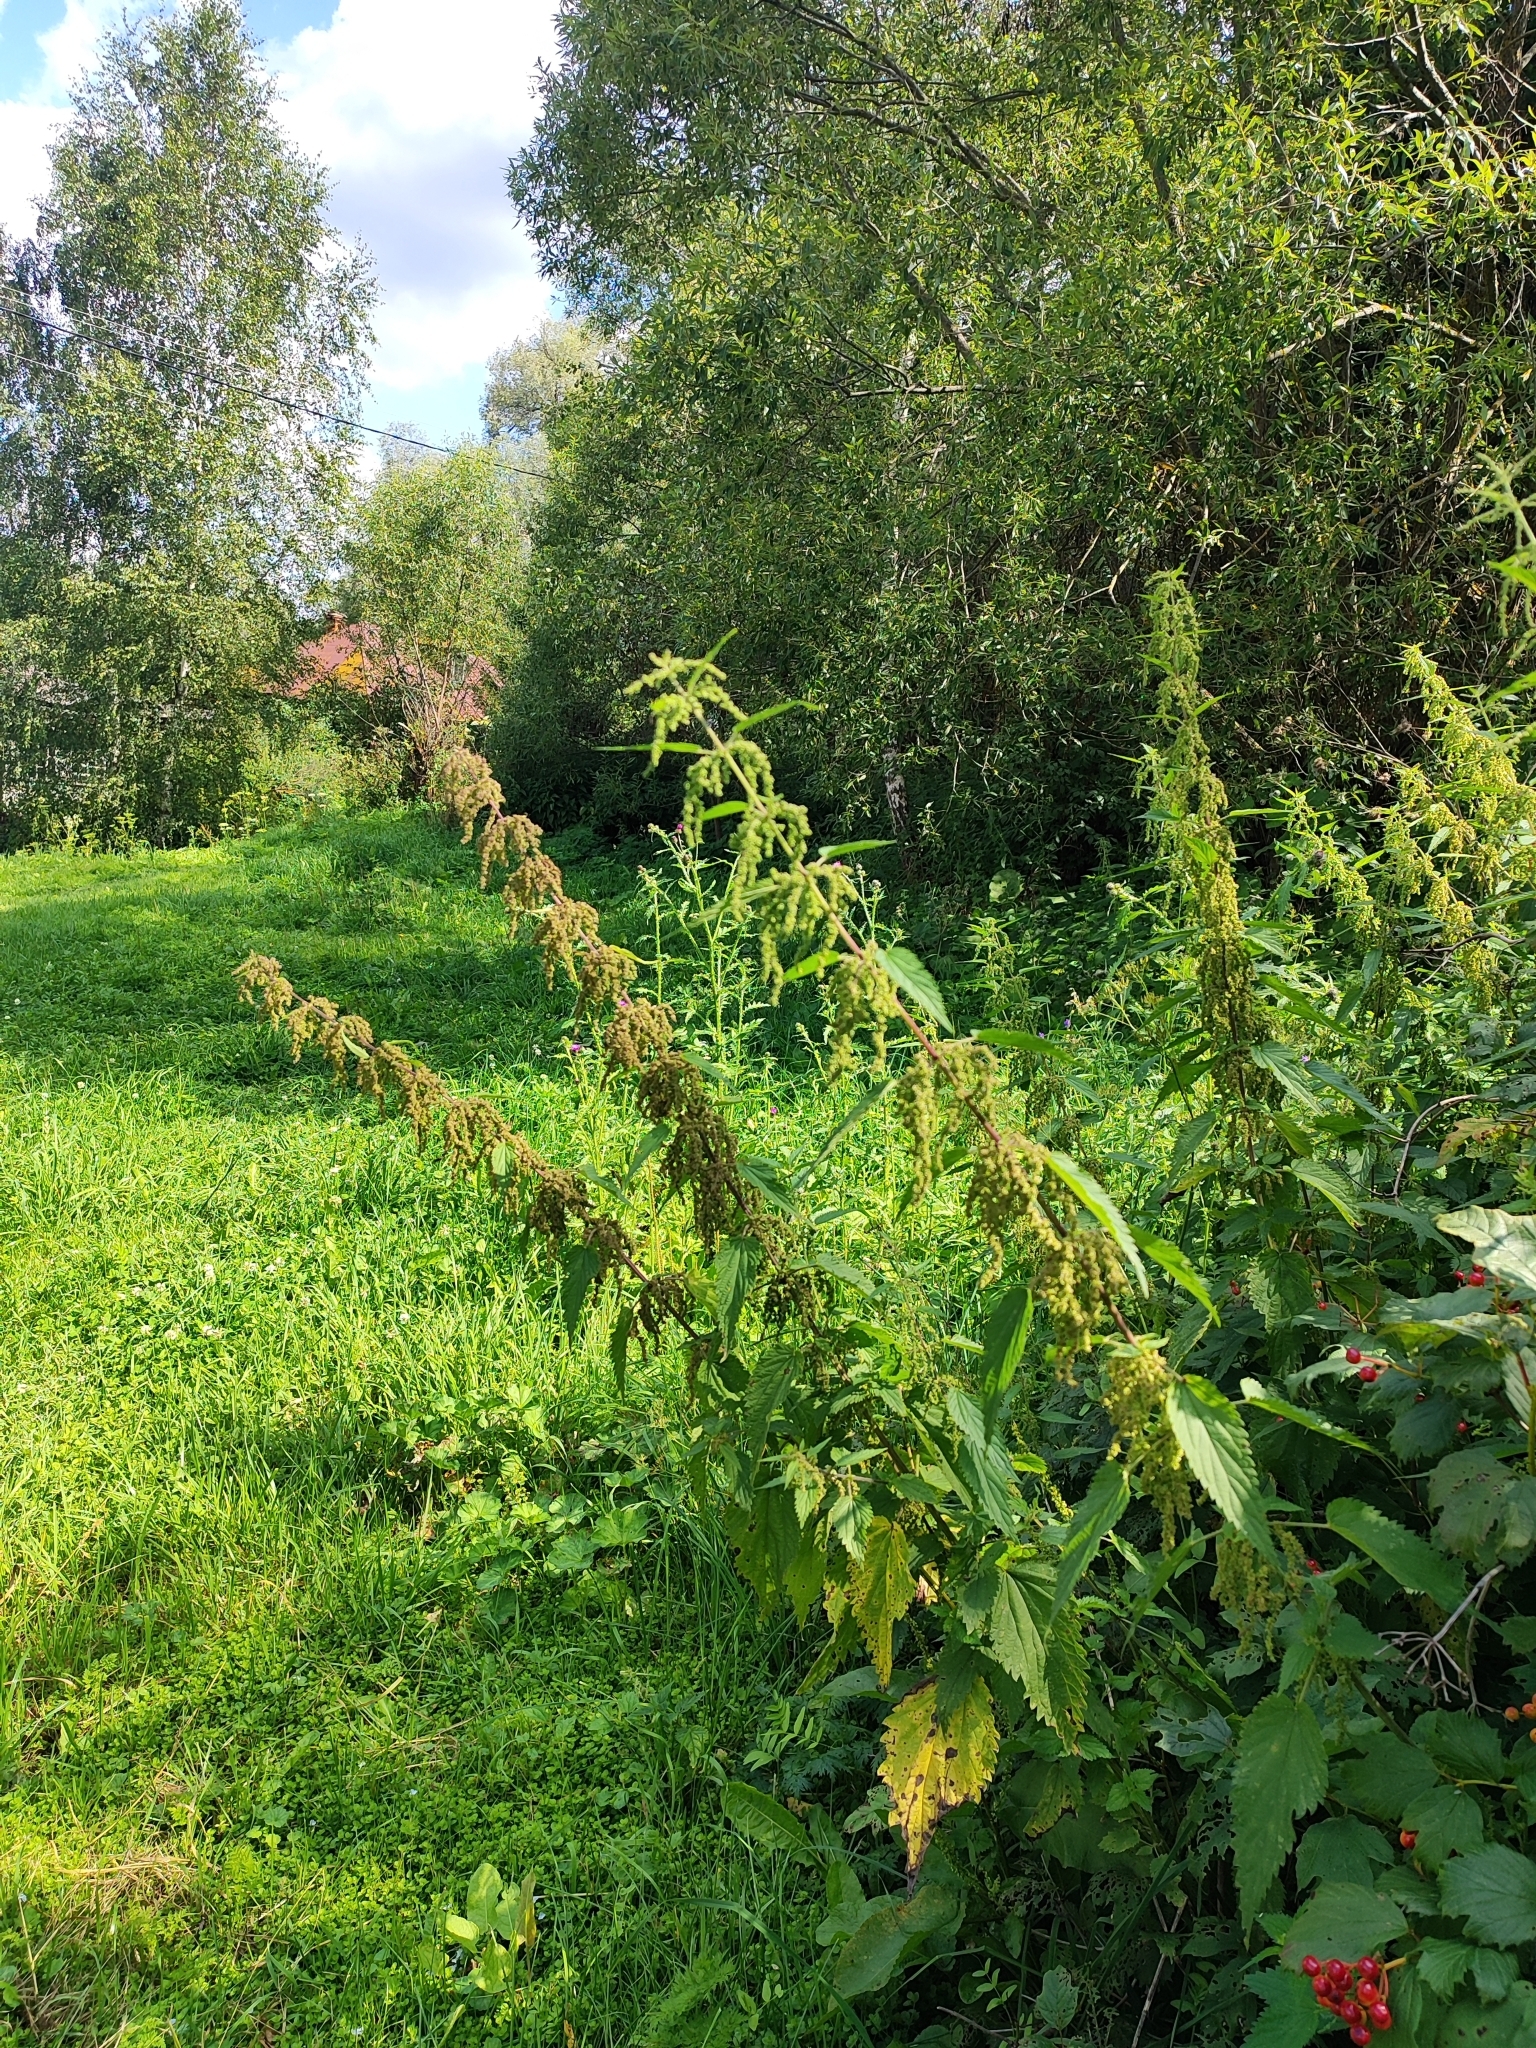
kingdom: Plantae
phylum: Tracheophyta
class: Magnoliopsida
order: Rosales
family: Urticaceae
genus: Urtica
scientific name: Urtica dioica
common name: Common nettle
